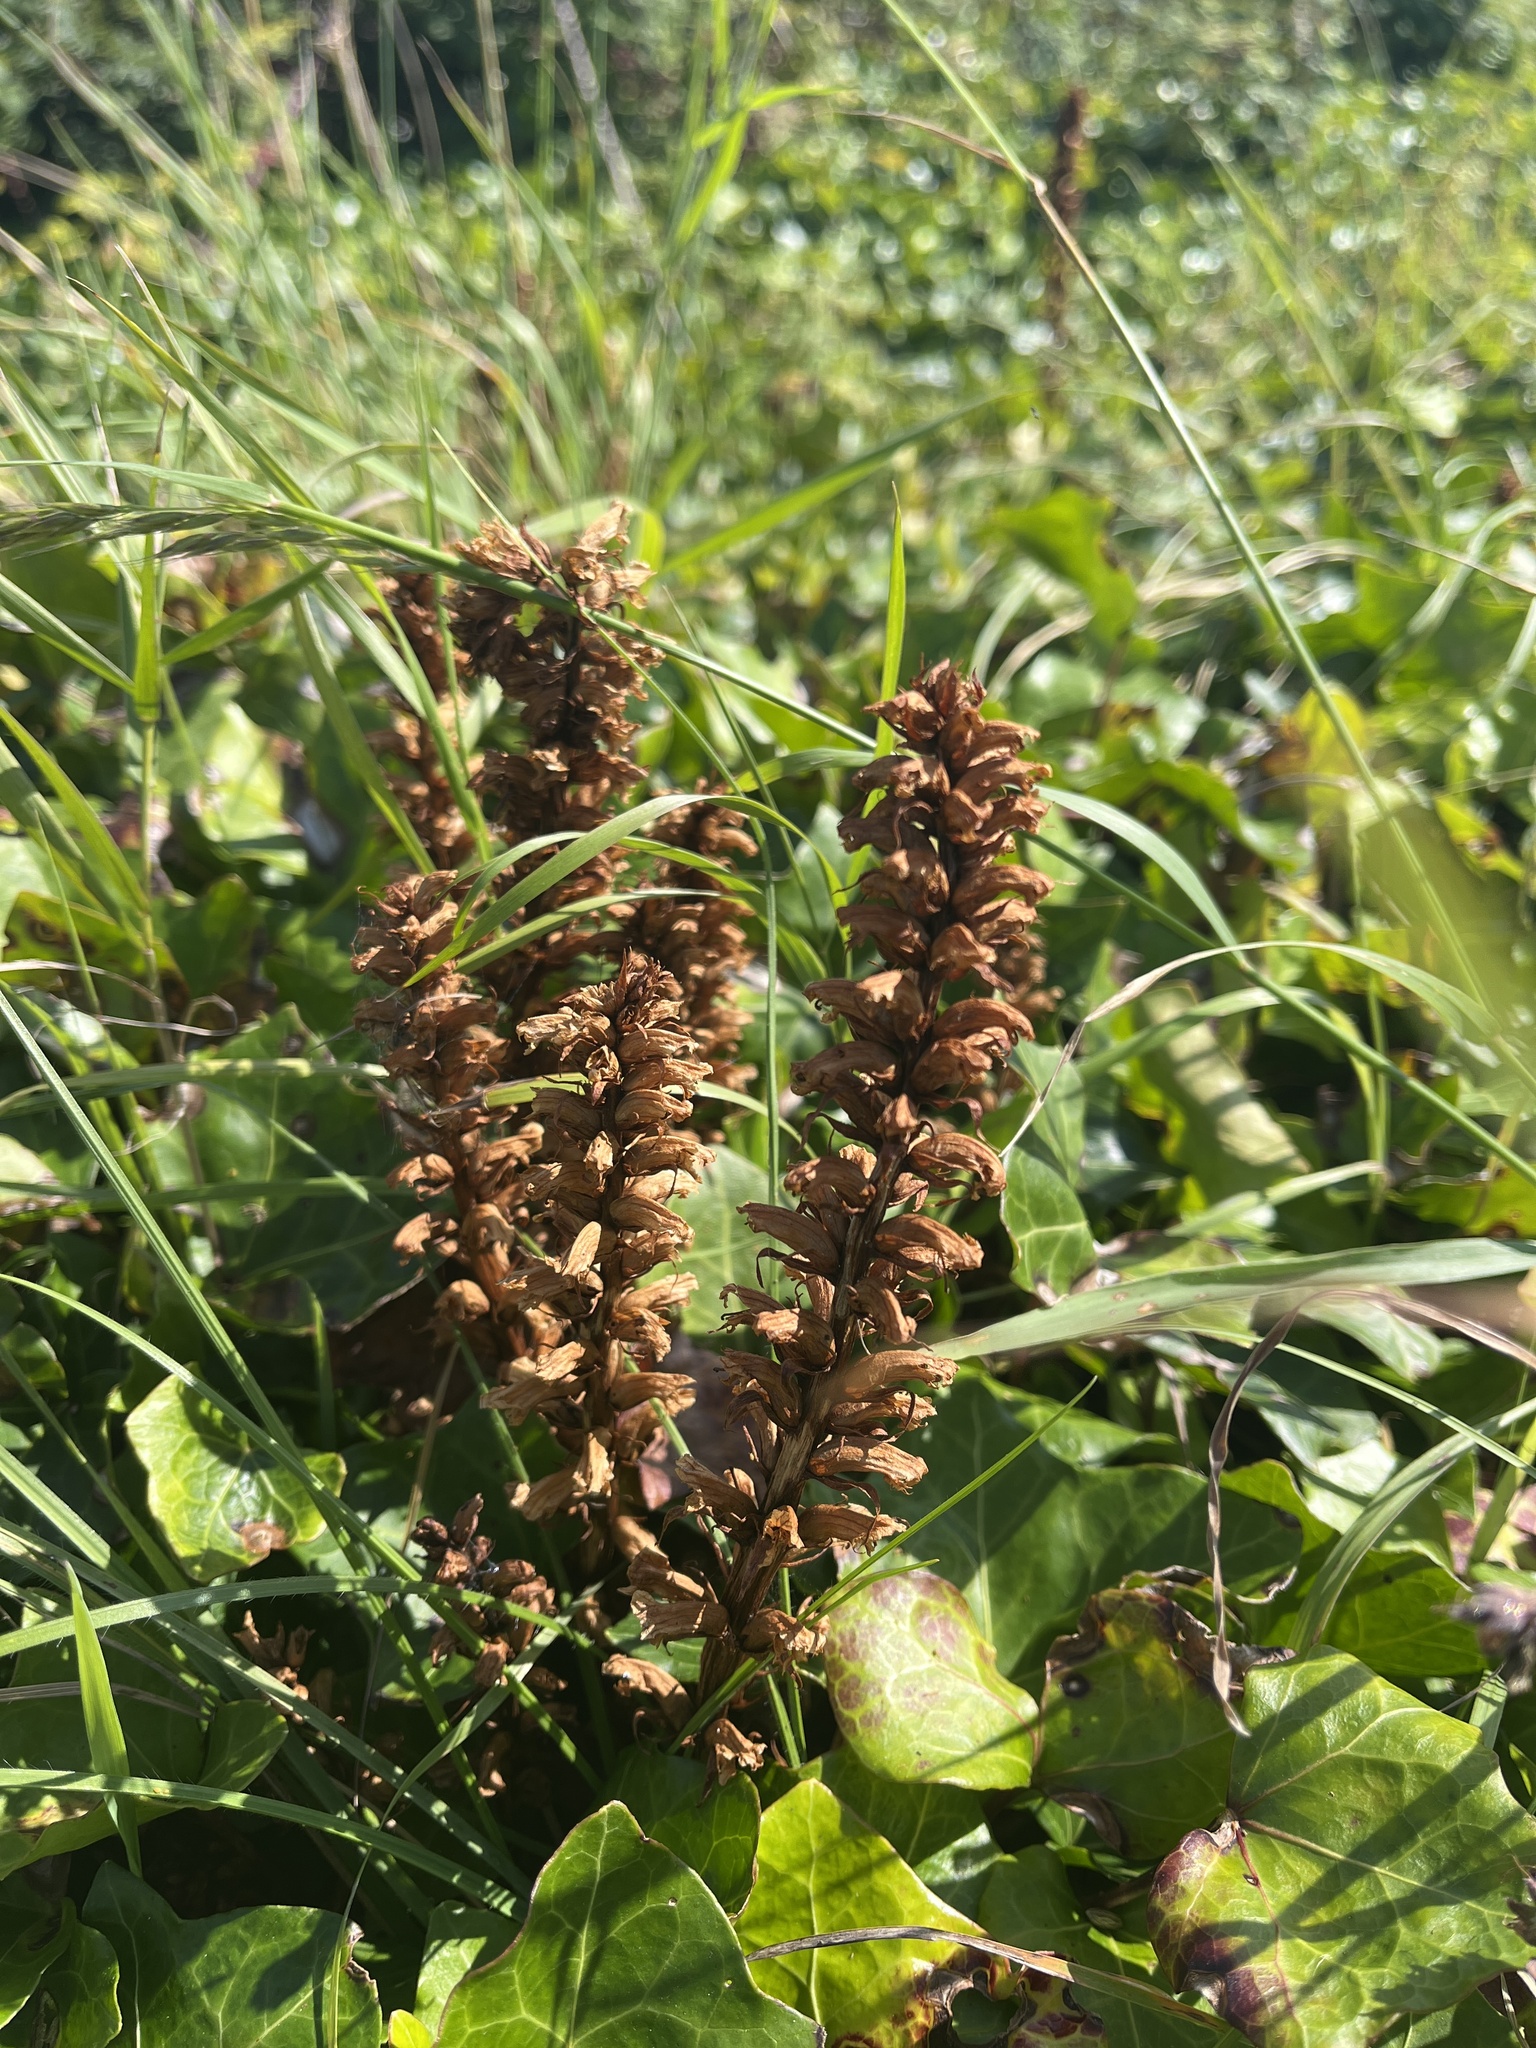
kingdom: Plantae
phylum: Tracheophyta
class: Magnoliopsida
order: Lamiales
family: Orobanchaceae
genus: Orobanche
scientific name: Orobanche hederae
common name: Ivy broomrape
